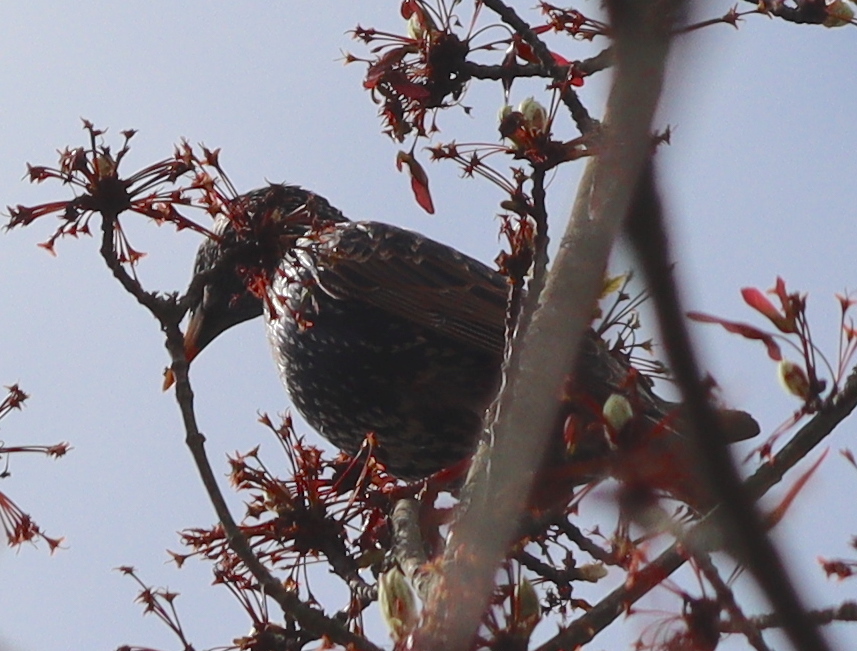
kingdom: Animalia
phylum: Chordata
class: Aves
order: Passeriformes
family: Sturnidae
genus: Sturnus
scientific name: Sturnus vulgaris
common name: Common starling
